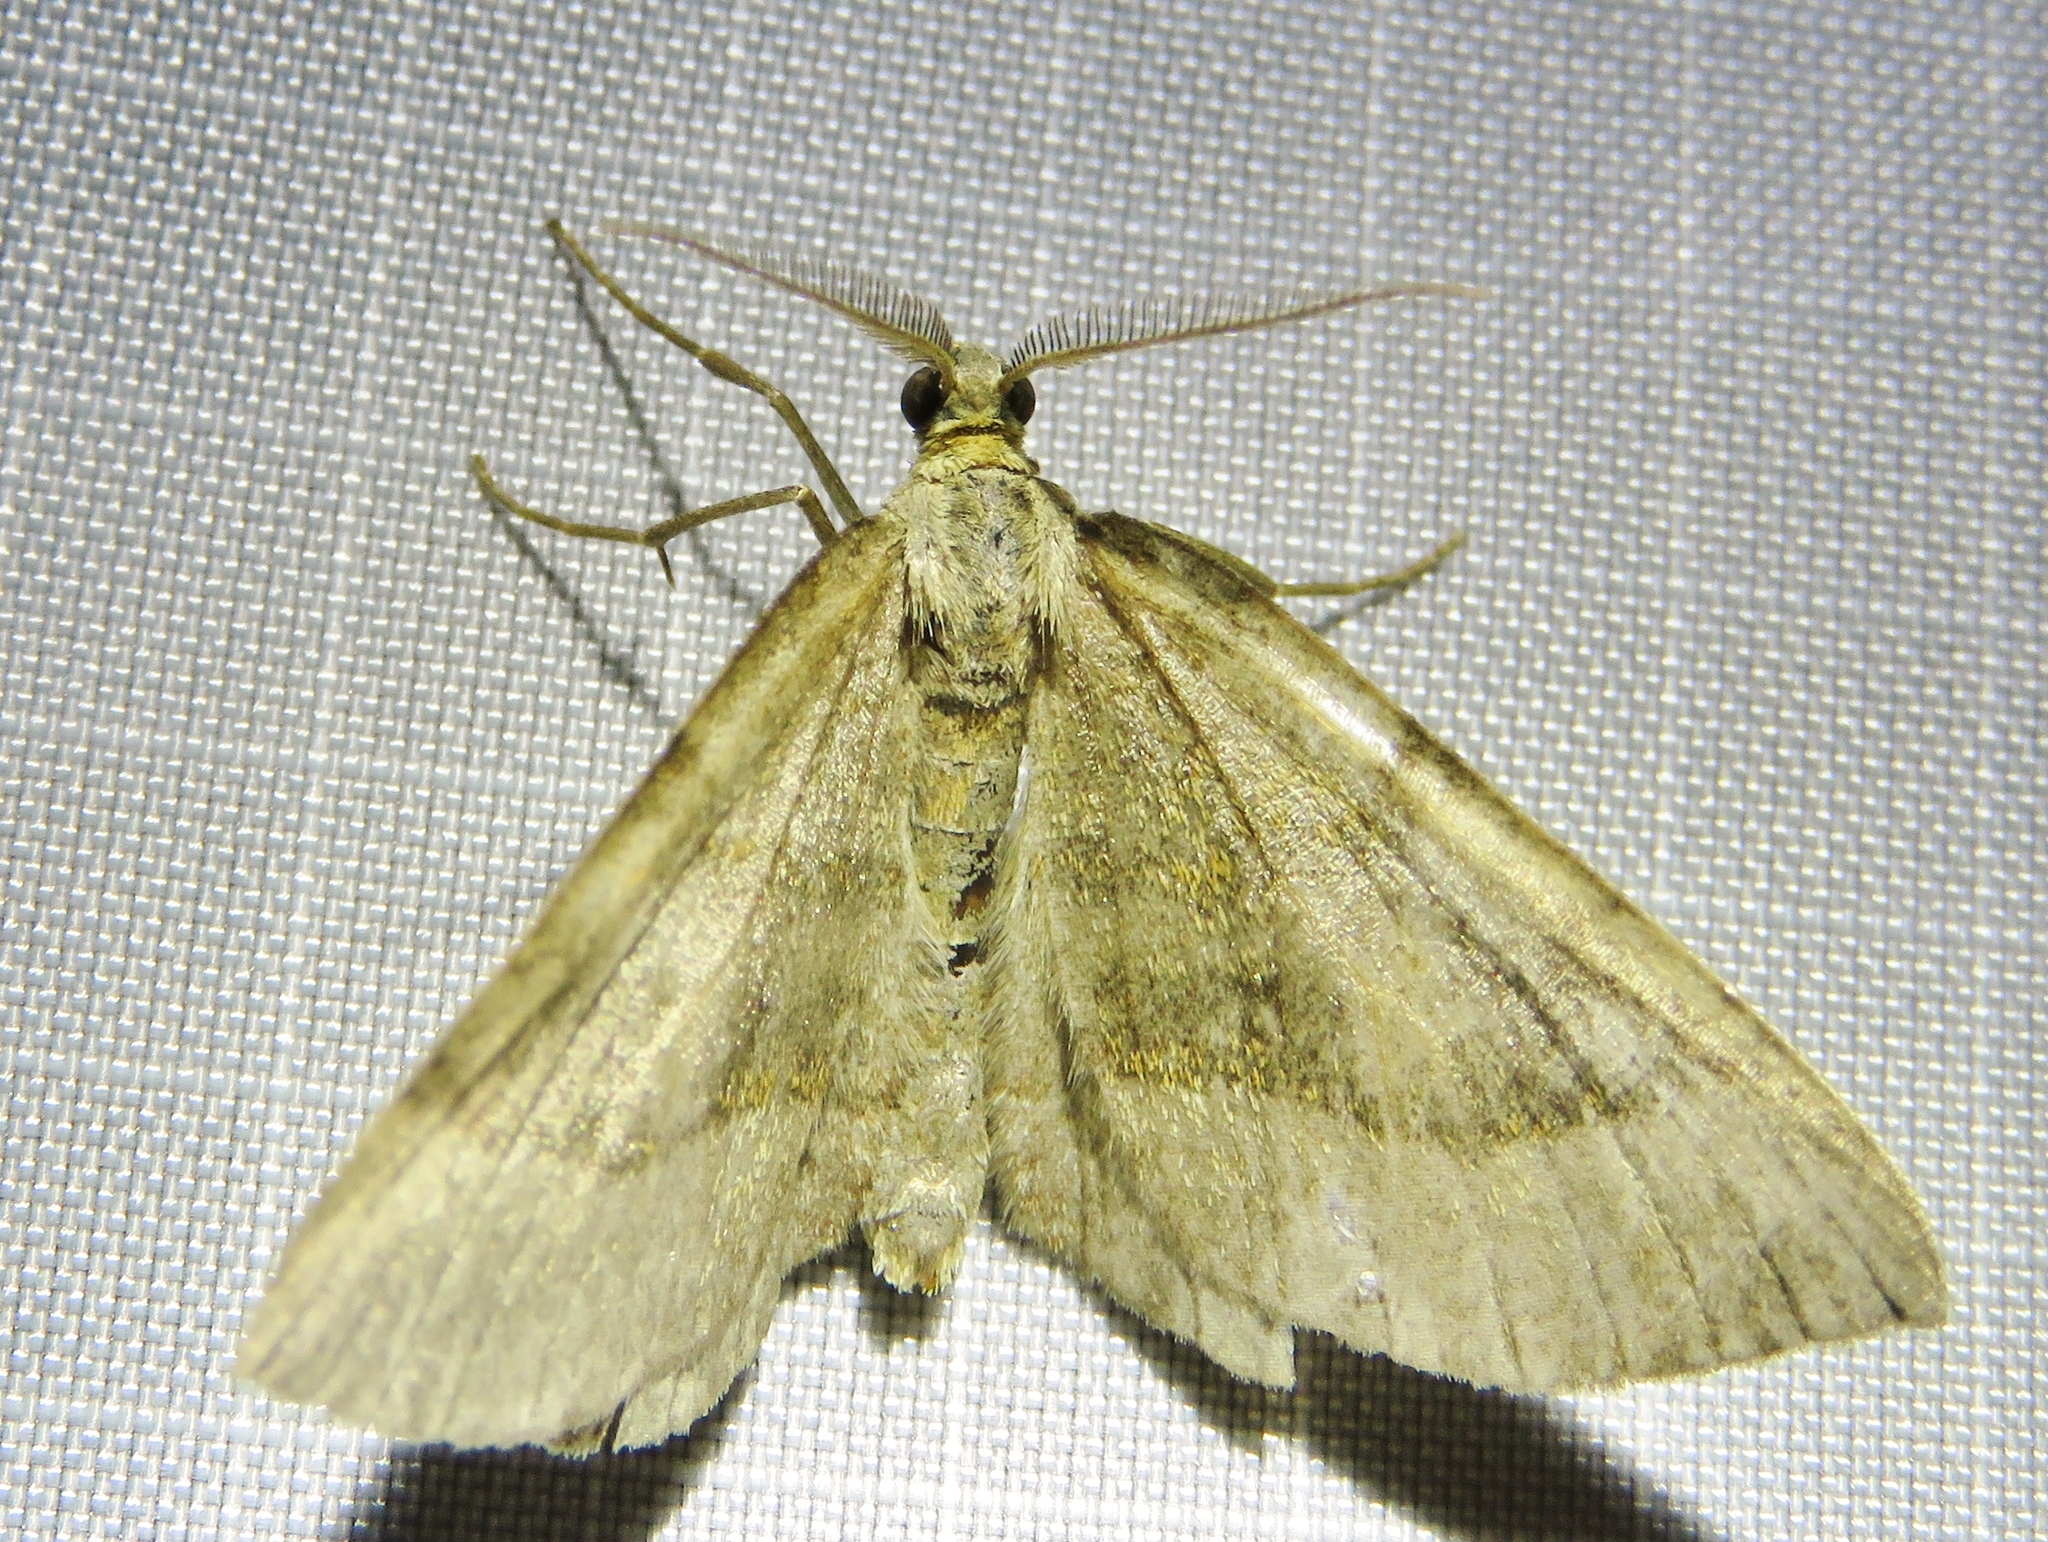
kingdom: Animalia
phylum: Arthropoda
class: Insecta
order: Lepidoptera
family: Geometridae
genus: Scotopteryx
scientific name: Scotopteryx chenopodiata
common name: Shaded broad-bar
